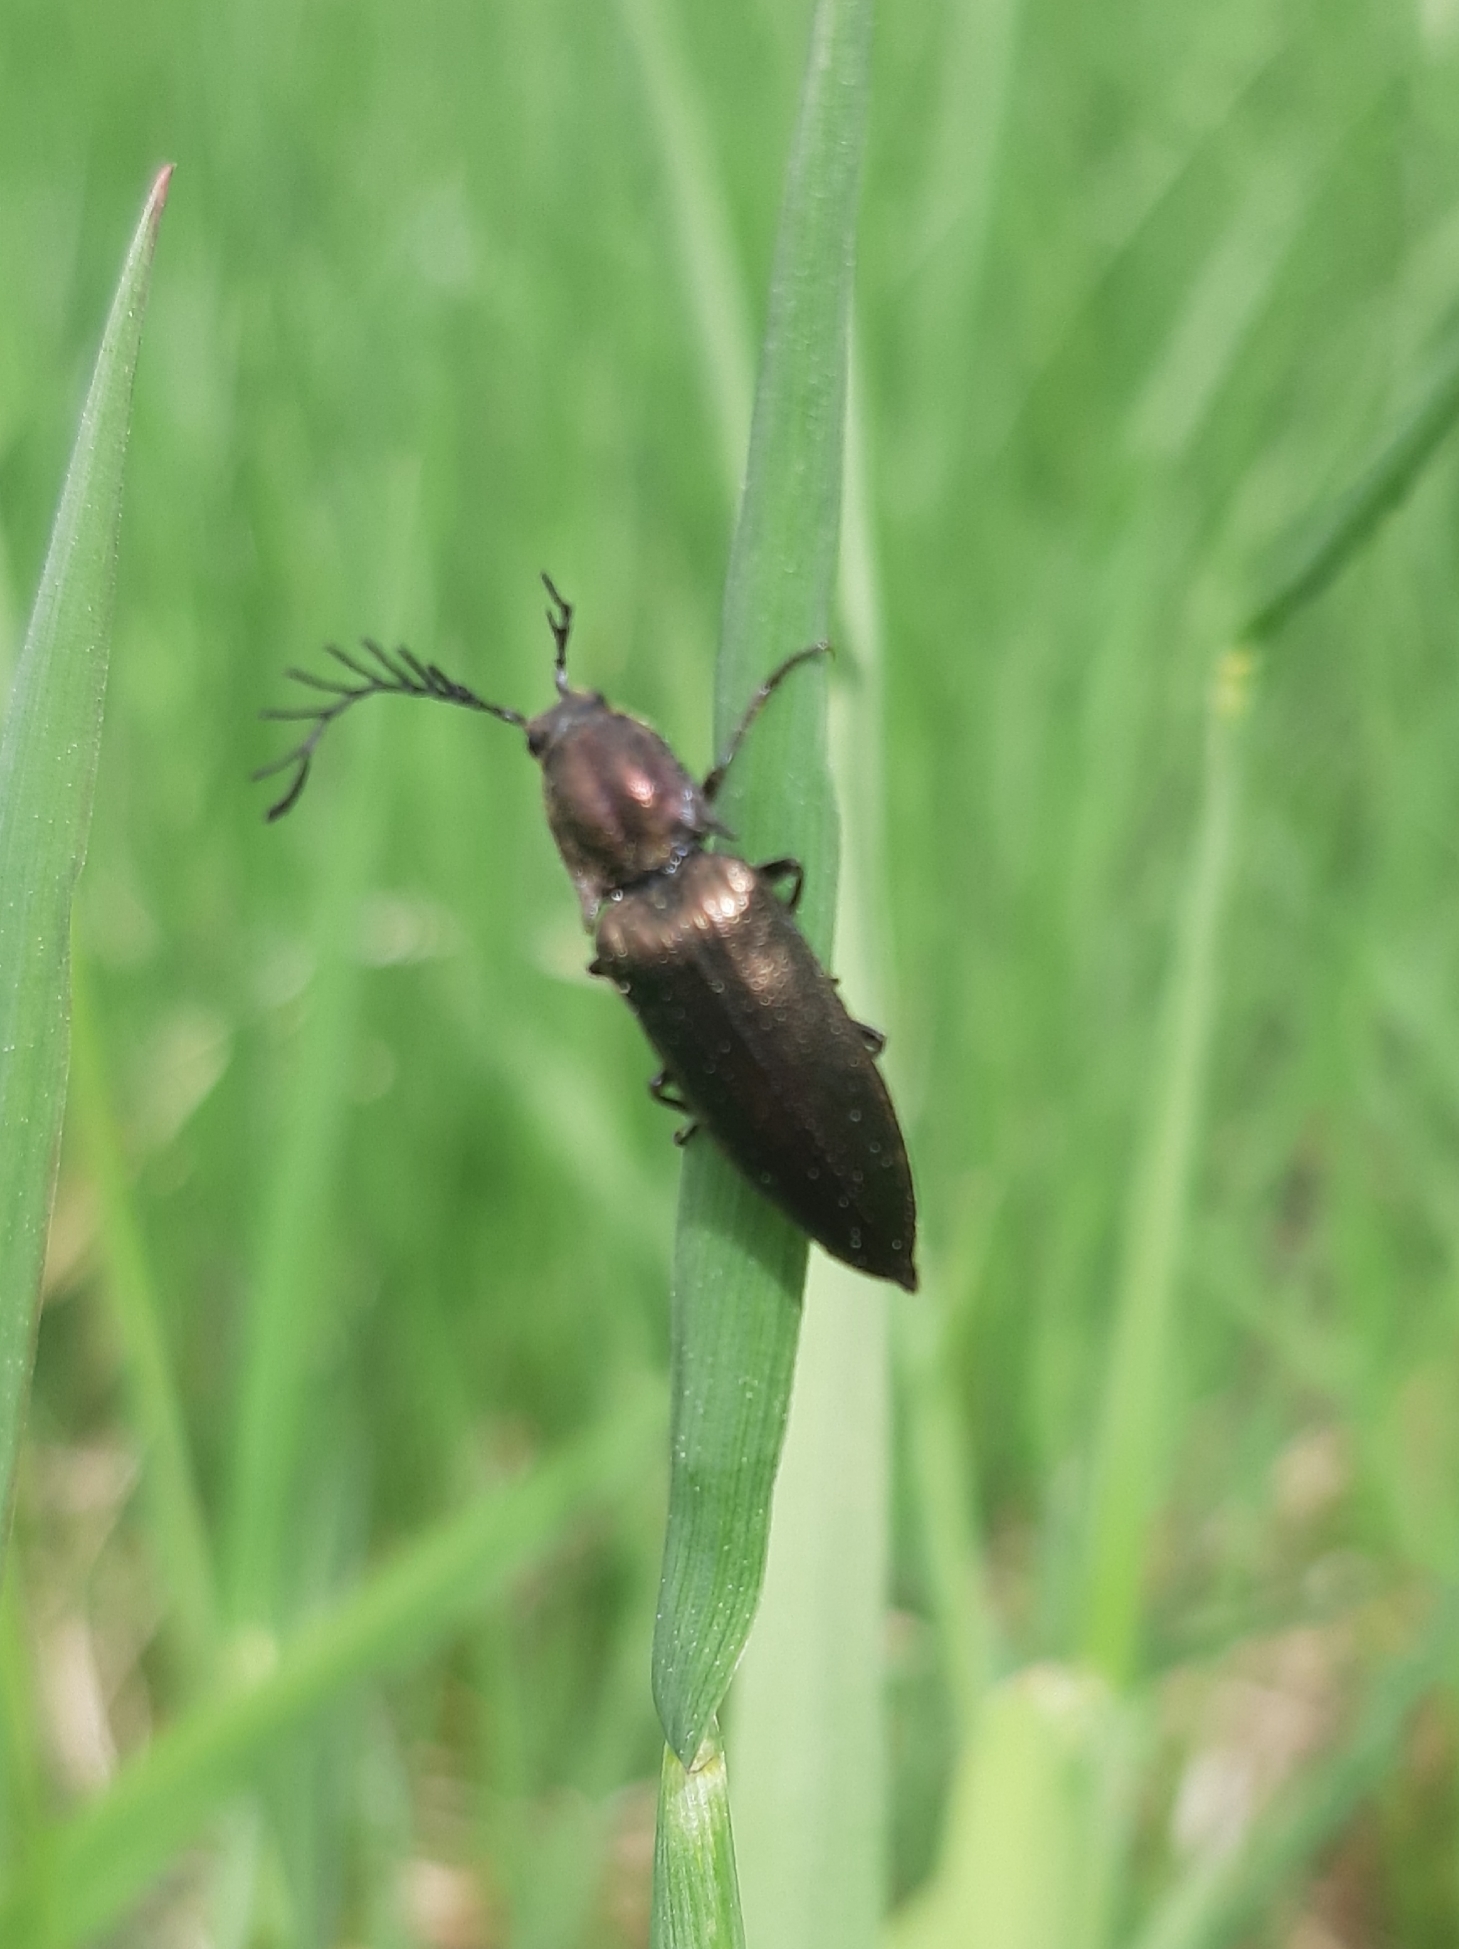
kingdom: Animalia
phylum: Arthropoda
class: Insecta
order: Coleoptera
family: Elateridae
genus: Ctenicera
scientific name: Ctenicera pectinicornis
